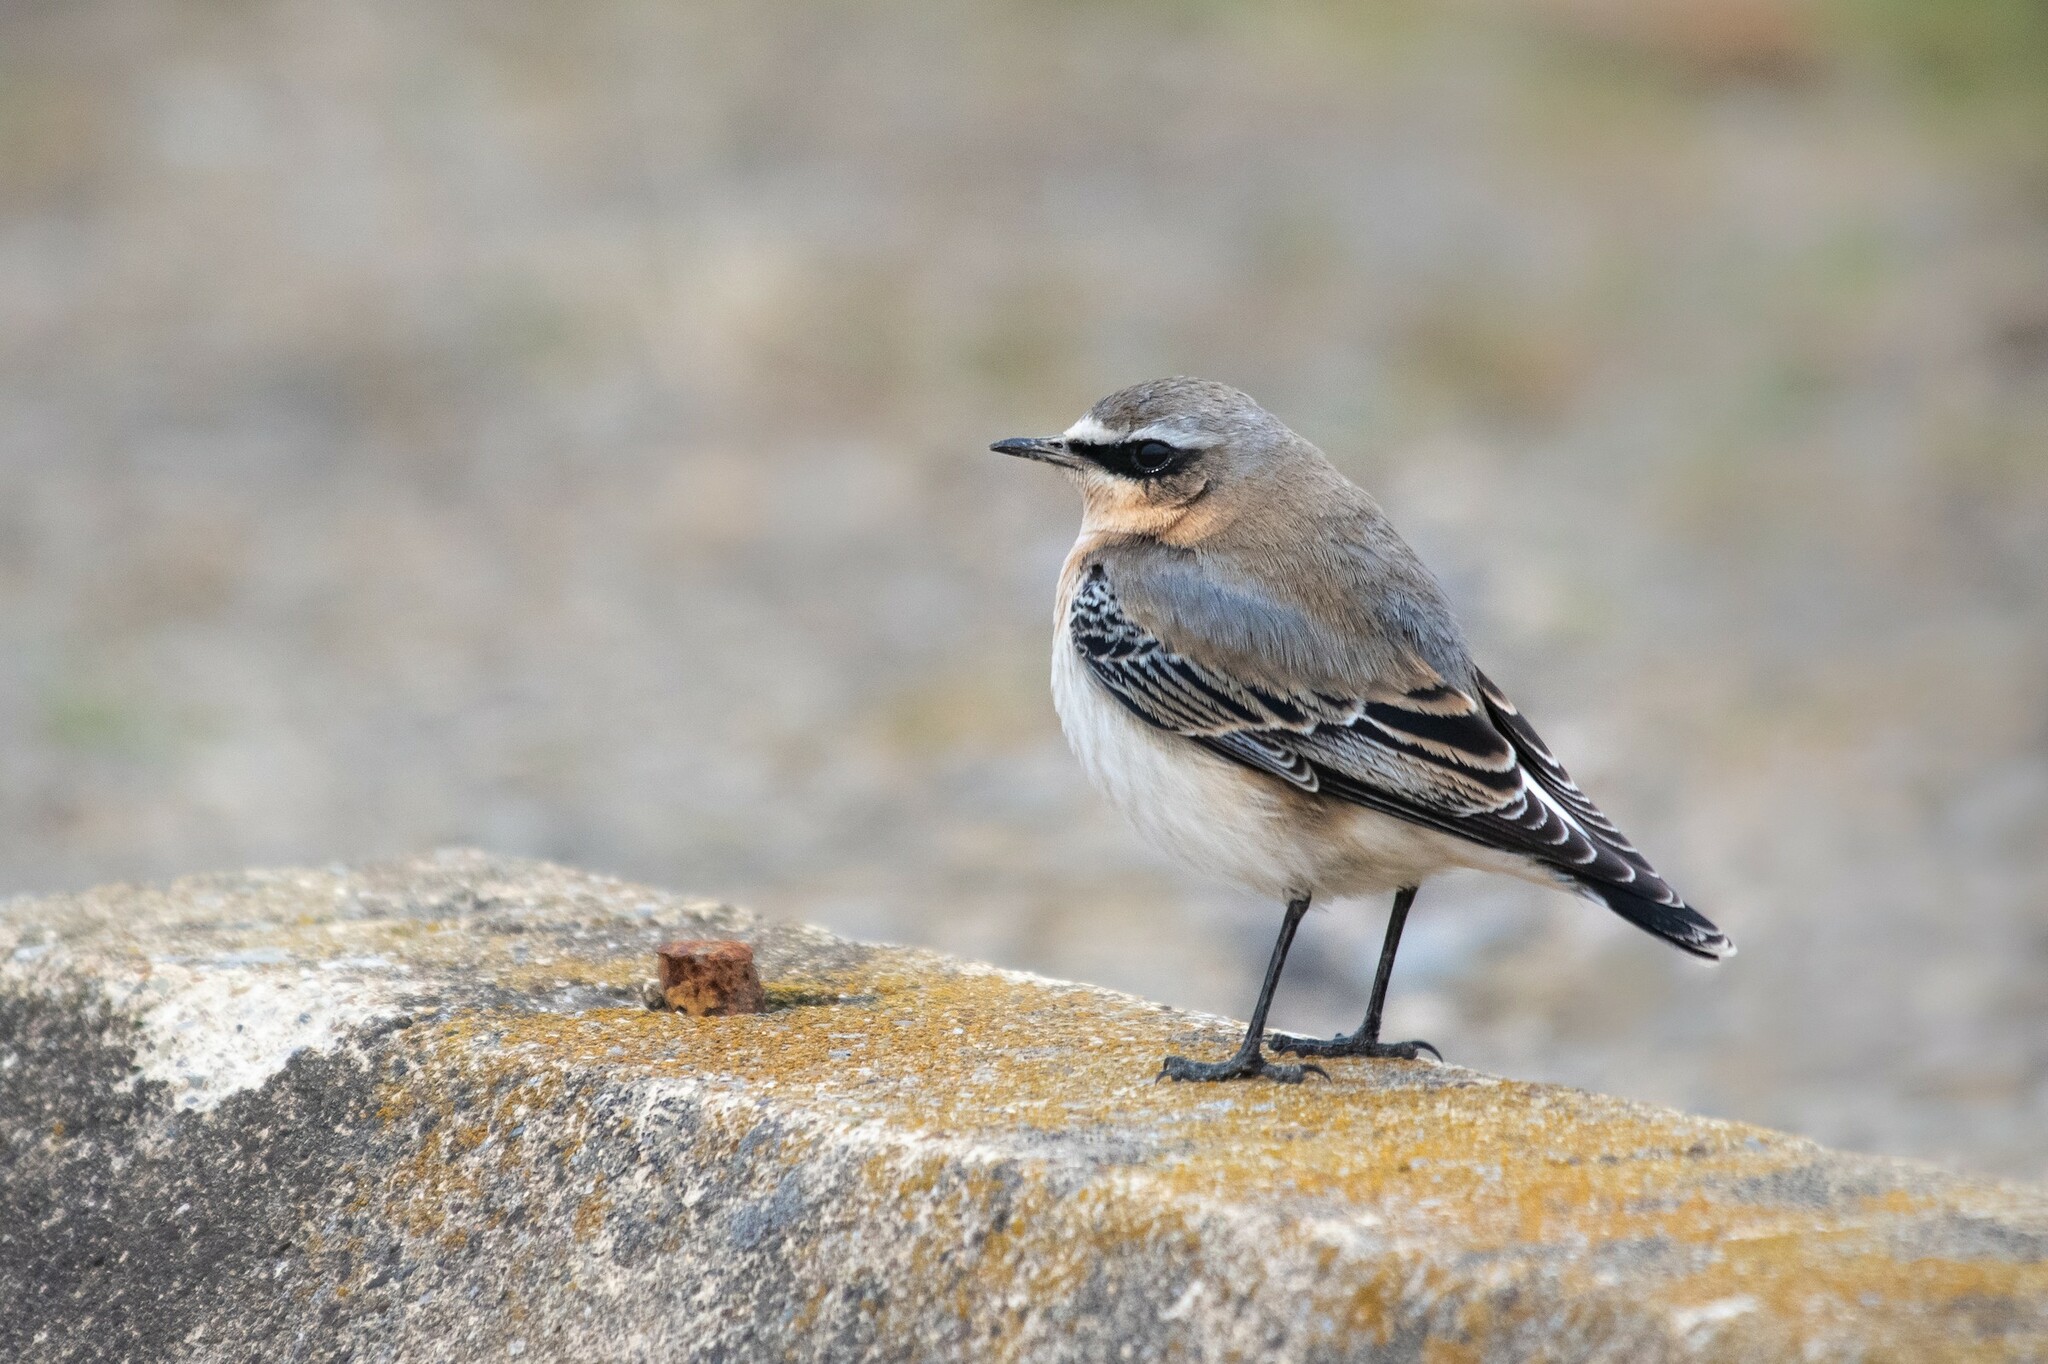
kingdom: Animalia
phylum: Chordata
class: Aves
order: Passeriformes
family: Muscicapidae
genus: Oenanthe
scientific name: Oenanthe oenanthe
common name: Northern wheatear
